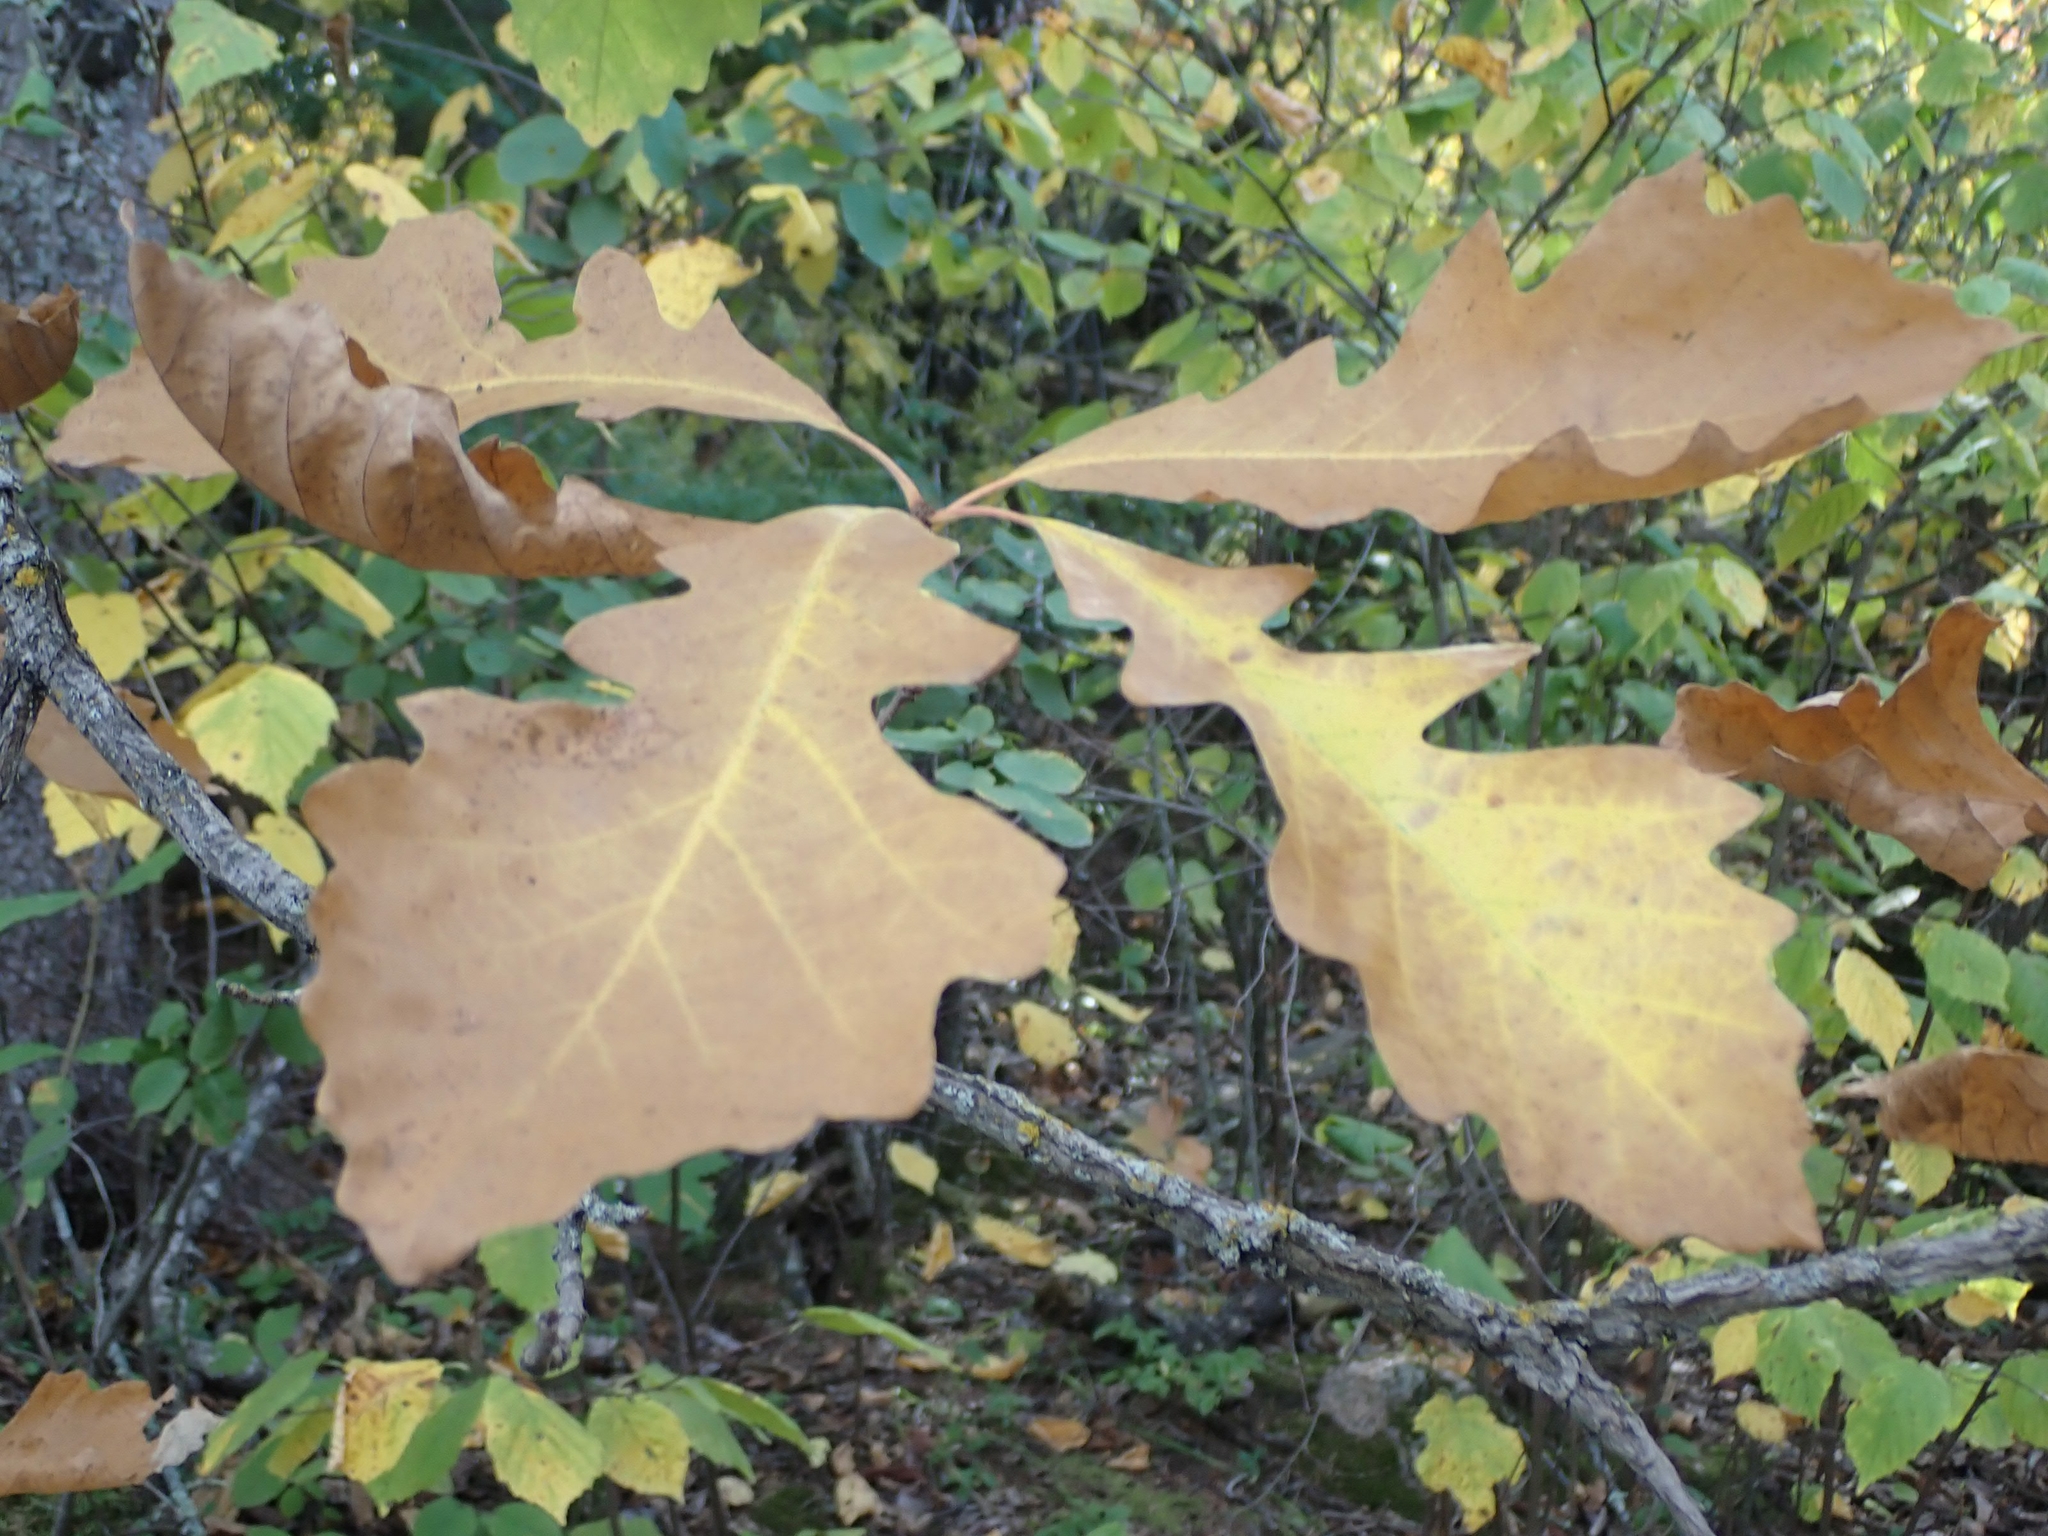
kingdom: Plantae
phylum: Tracheophyta
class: Magnoliopsida
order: Fagales
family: Fagaceae
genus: Quercus
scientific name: Quercus macrocarpa
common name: Bur oak
